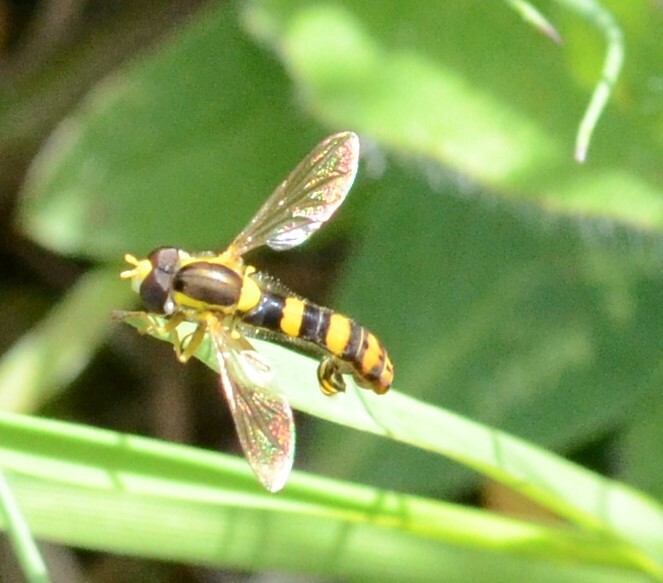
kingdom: Animalia
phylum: Arthropoda
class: Insecta
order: Diptera
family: Syrphidae
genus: Sphaerophoria
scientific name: Sphaerophoria scripta
